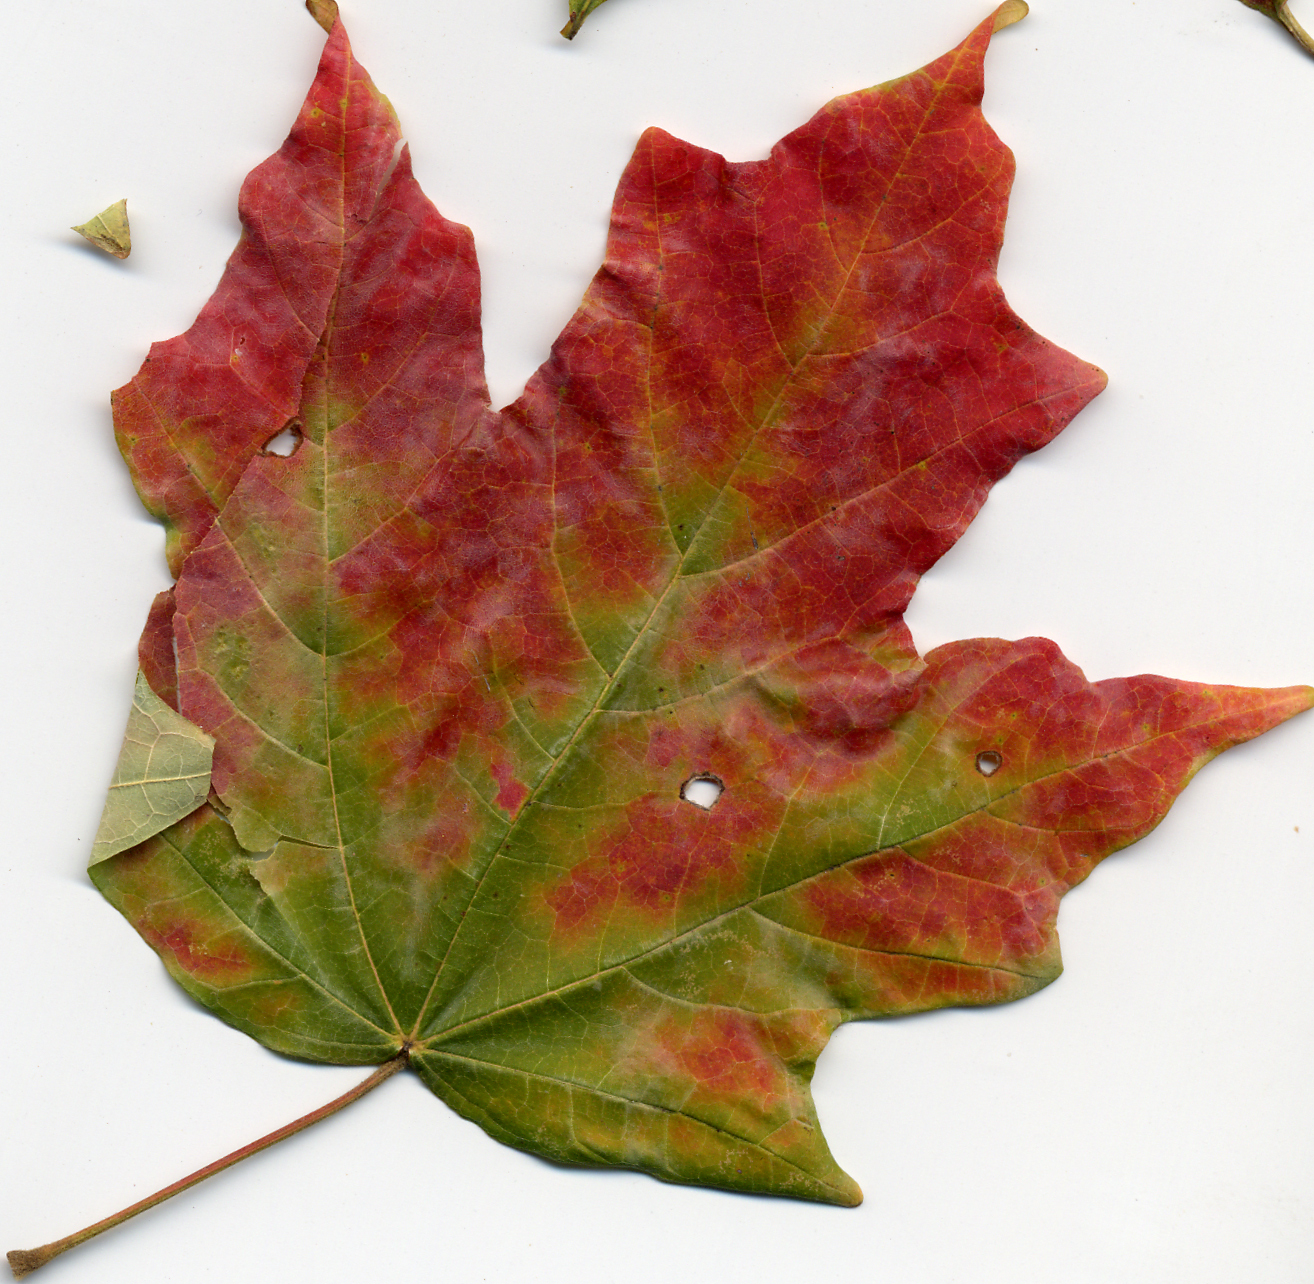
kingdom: Plantae
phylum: Tracheophyta
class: Magnoliopsida
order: Sapindales
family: Sapindaceae
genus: Acer
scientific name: Acer floridanum
